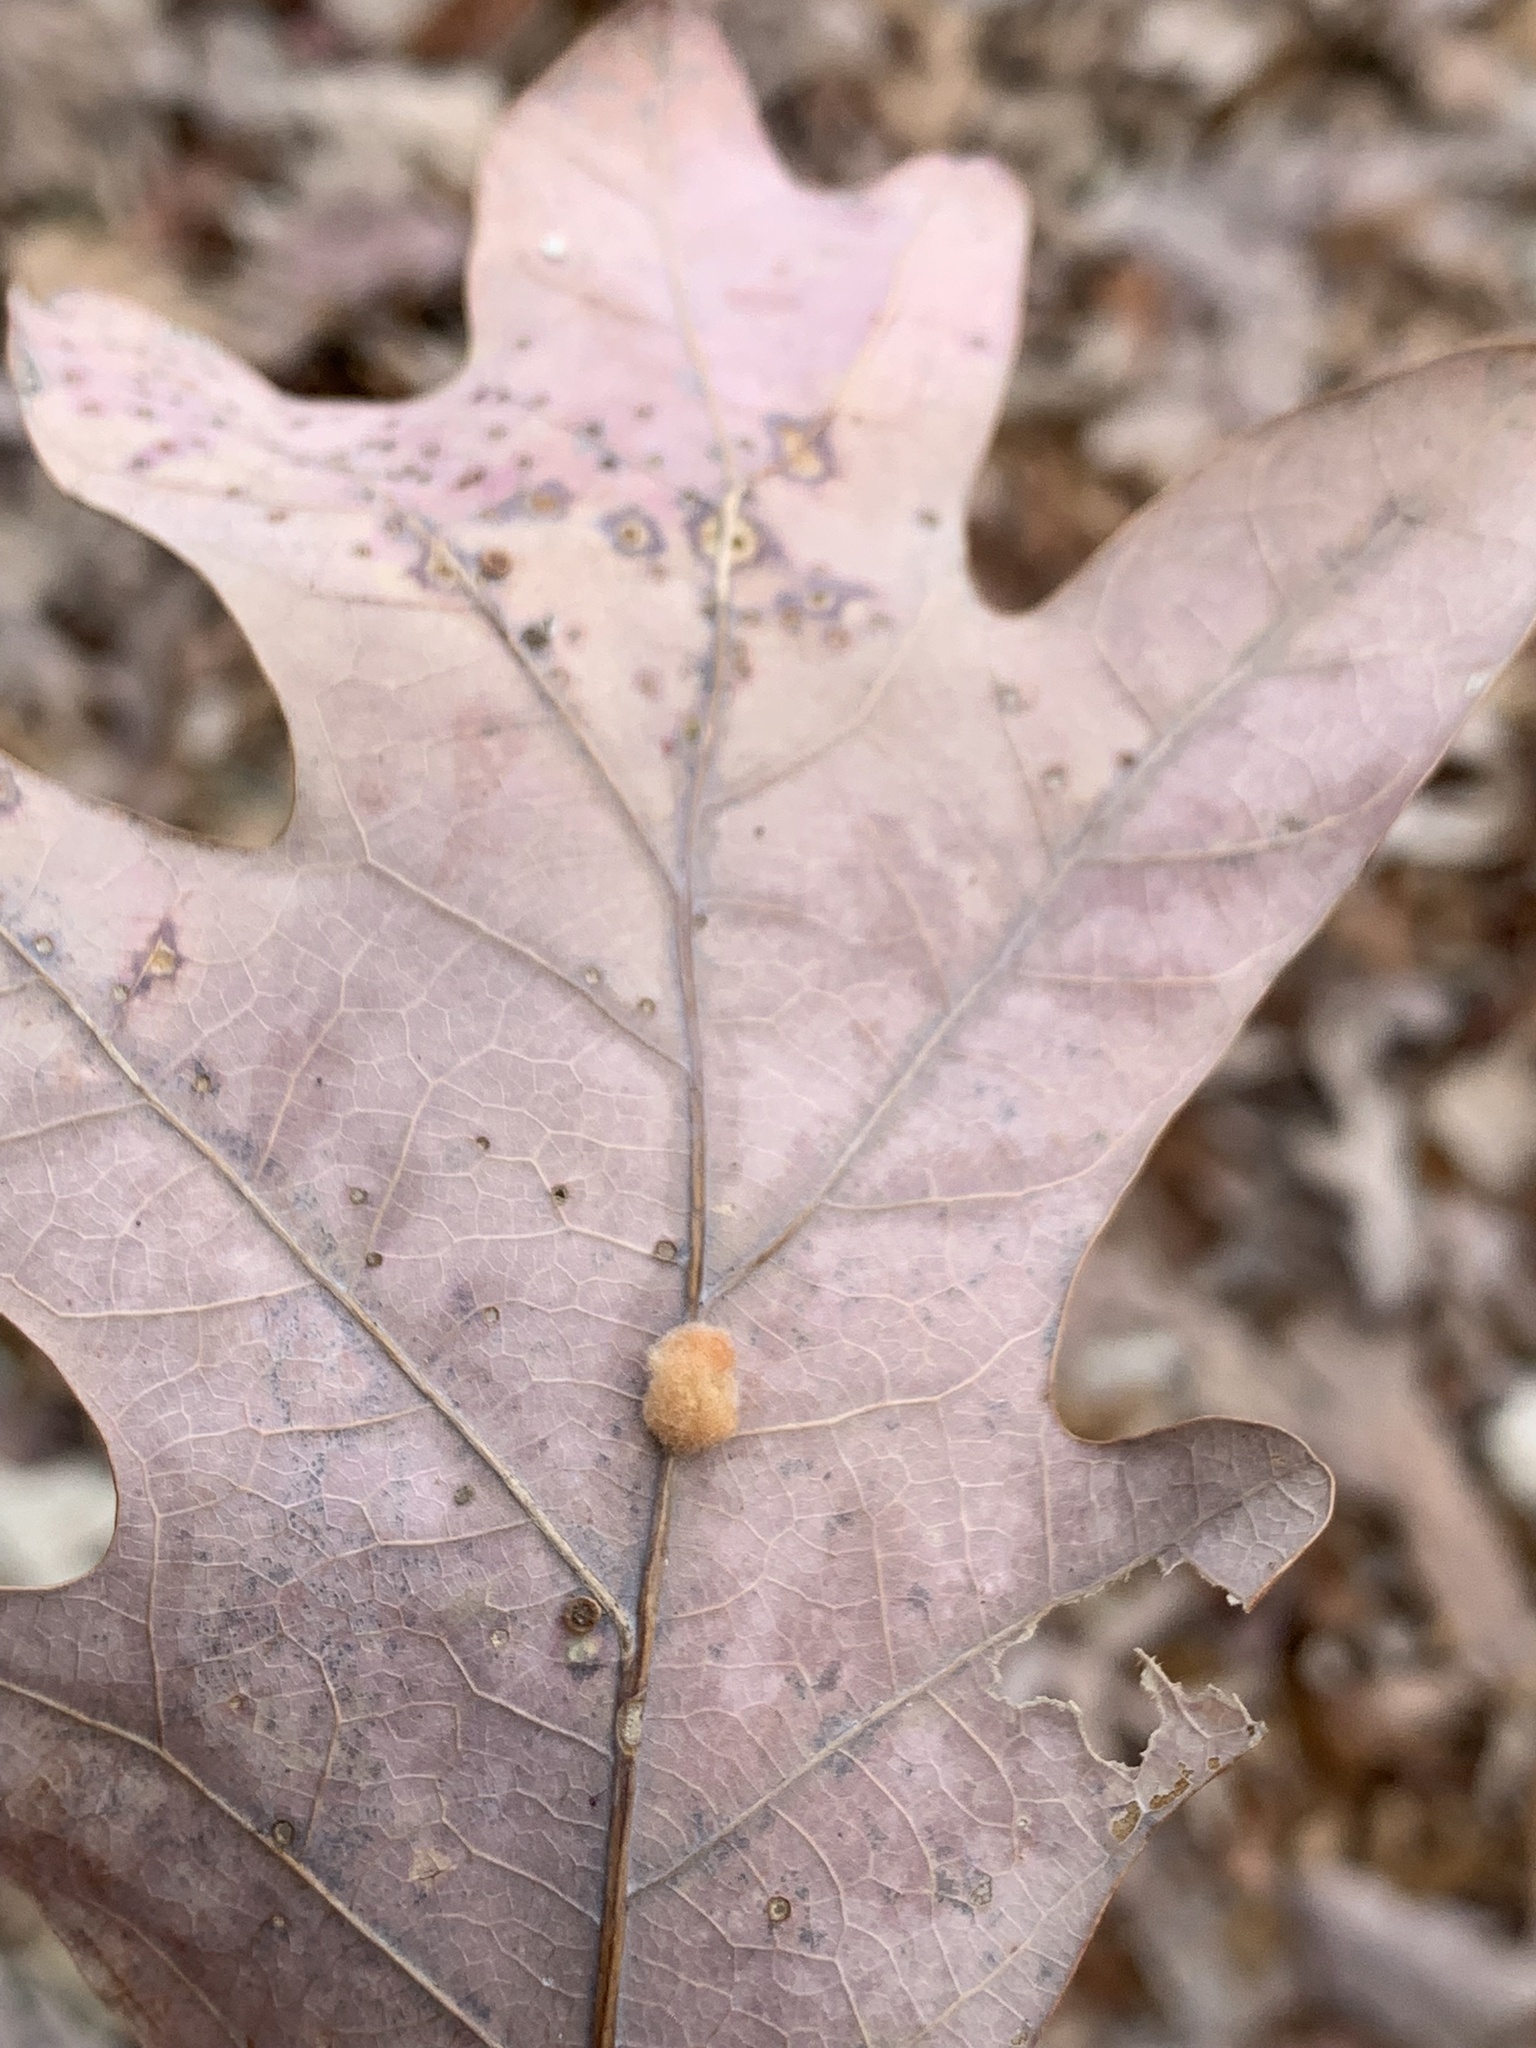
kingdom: Animalia
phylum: Arthropoda
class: Insecta
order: Hymenoptera
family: Cynipidae
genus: Andricus
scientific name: Andricus quercusflocci
